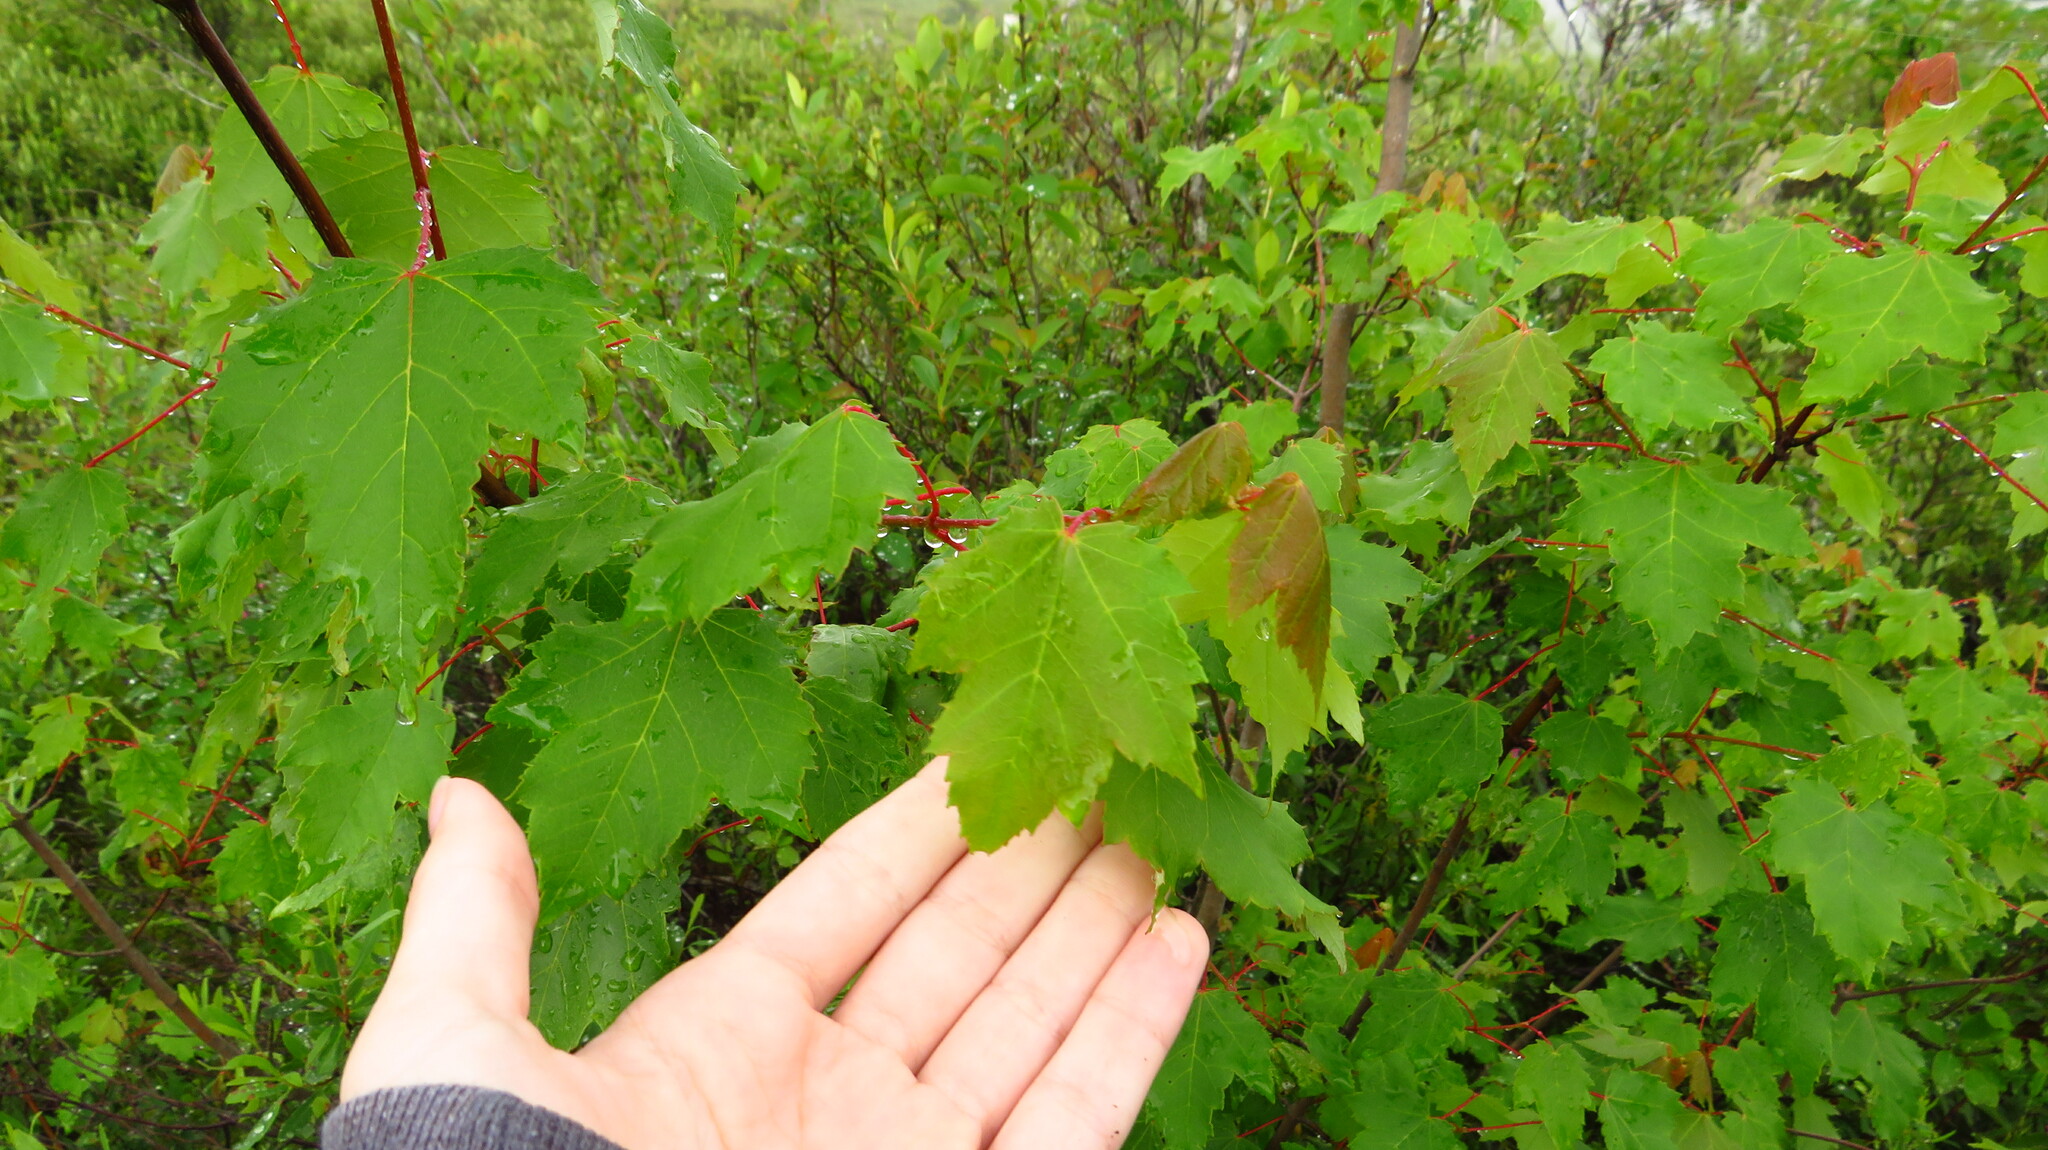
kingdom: Plantae
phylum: Tracheophyta
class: Magnoliopsida
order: Sapindales
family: Sapindaceae
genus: Acer
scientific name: Acer rubrum
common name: Red maple
